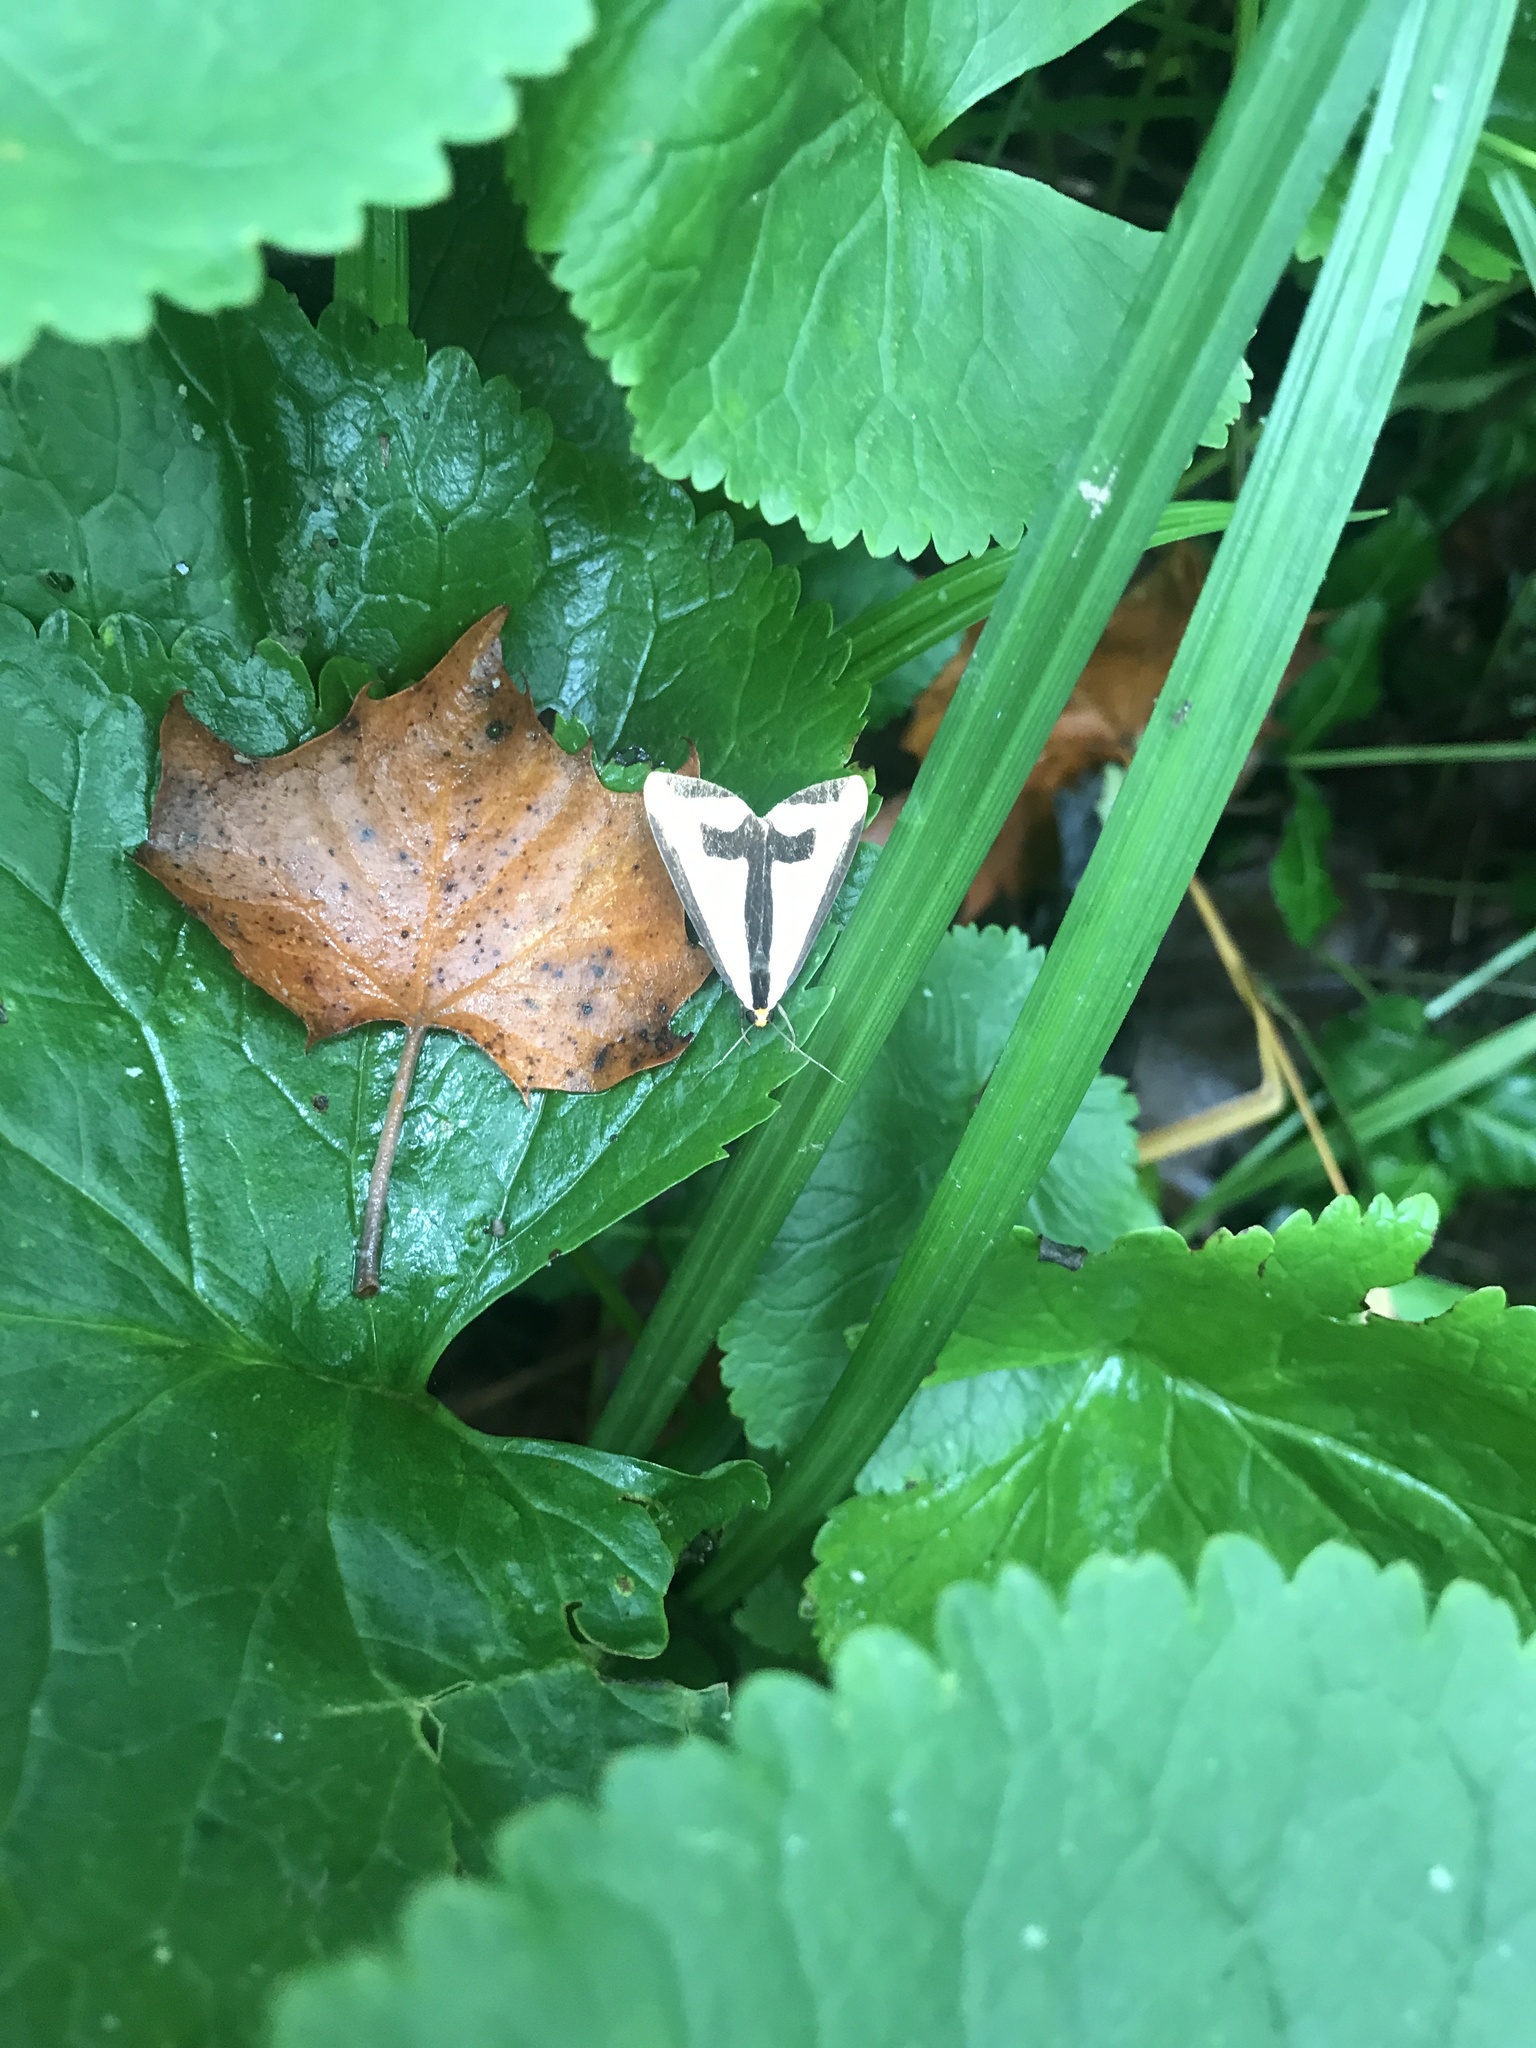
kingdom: Animalia
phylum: Arthropoda
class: Insecta
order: Lepidoptera
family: Erebidae
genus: Haploa
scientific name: Haploa clymene
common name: Clymene moth
